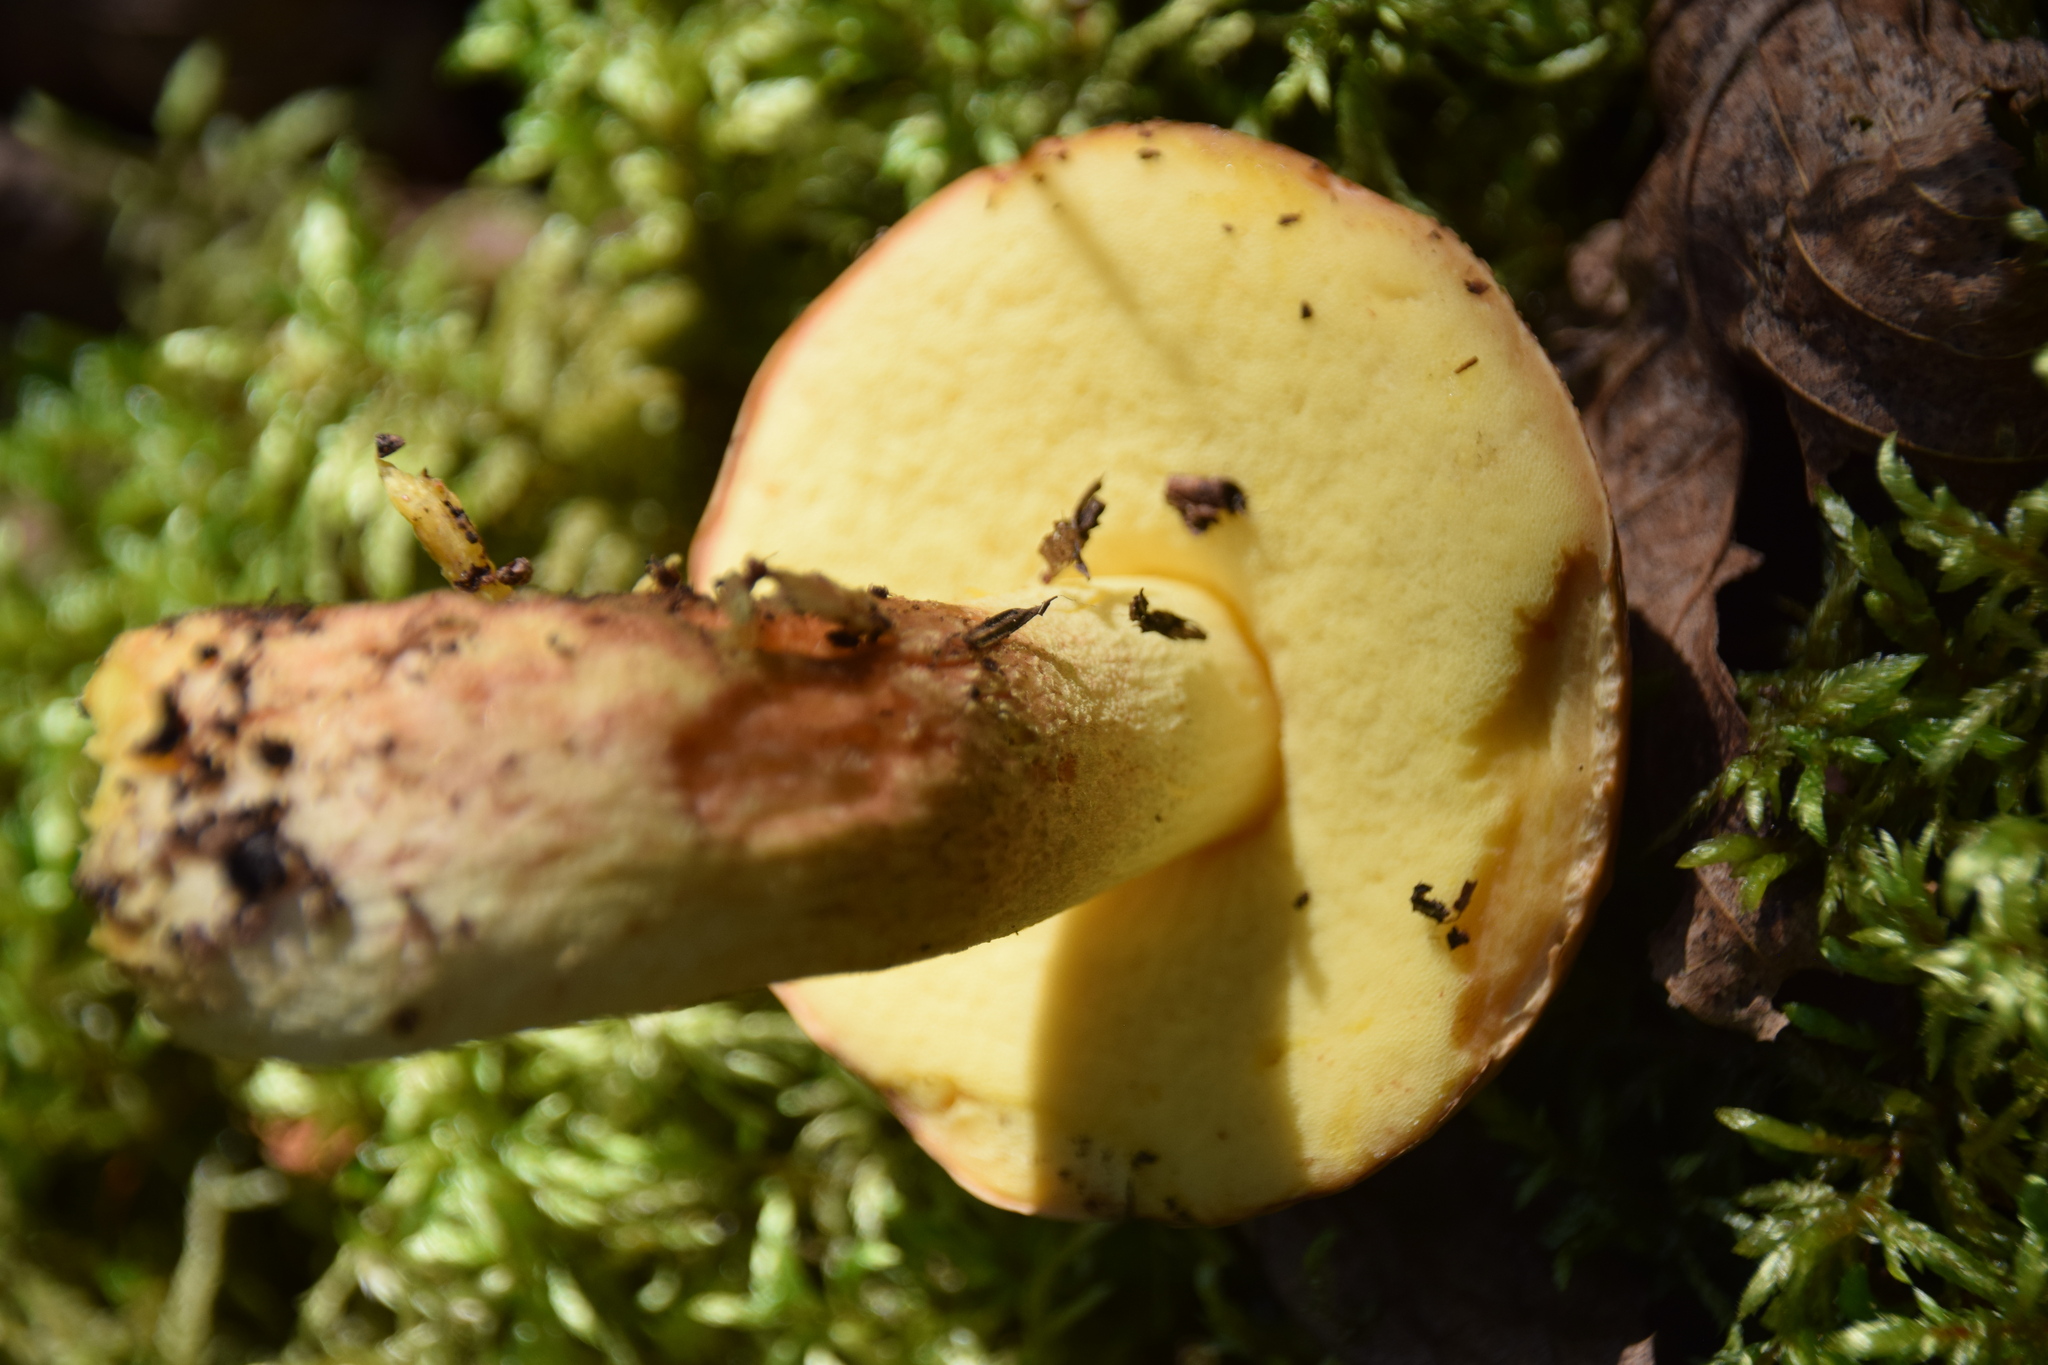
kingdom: Fungi
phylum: Basidiomycota
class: Agaricomycetes
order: Boletales
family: Boletaceae
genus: Hemileccinum
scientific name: Hemileccinum subglabripes
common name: Smoothish-stemmed bolete
